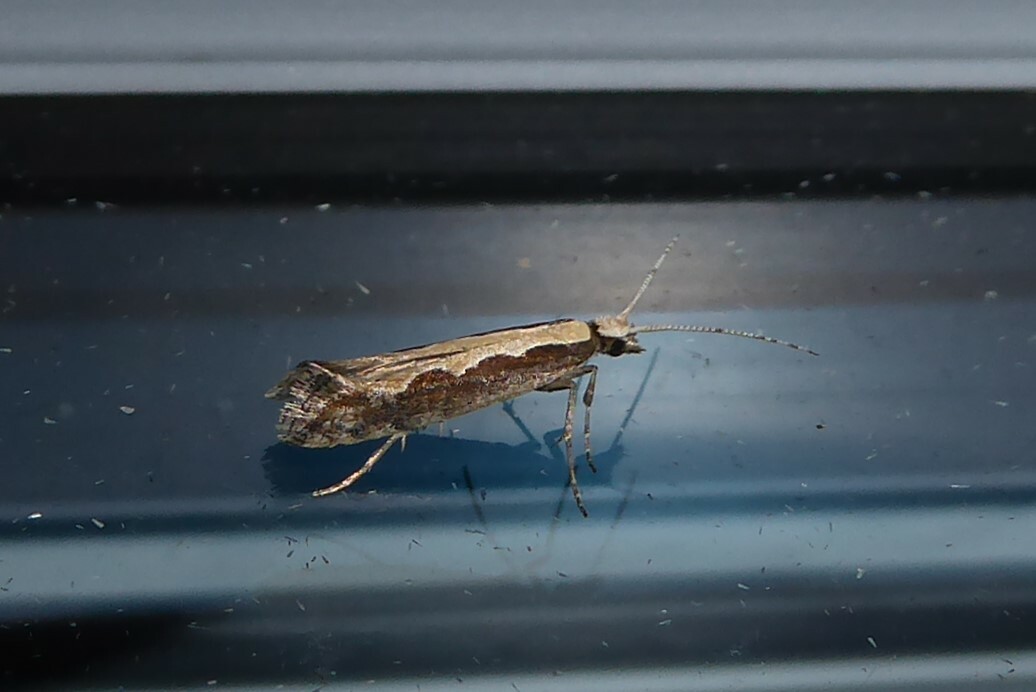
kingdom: Animalia
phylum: Arthropoda
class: Insecta
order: Lepidoptera
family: Plutellidae
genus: Plutella
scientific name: Plutella xylostella
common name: Diamond-back moth
